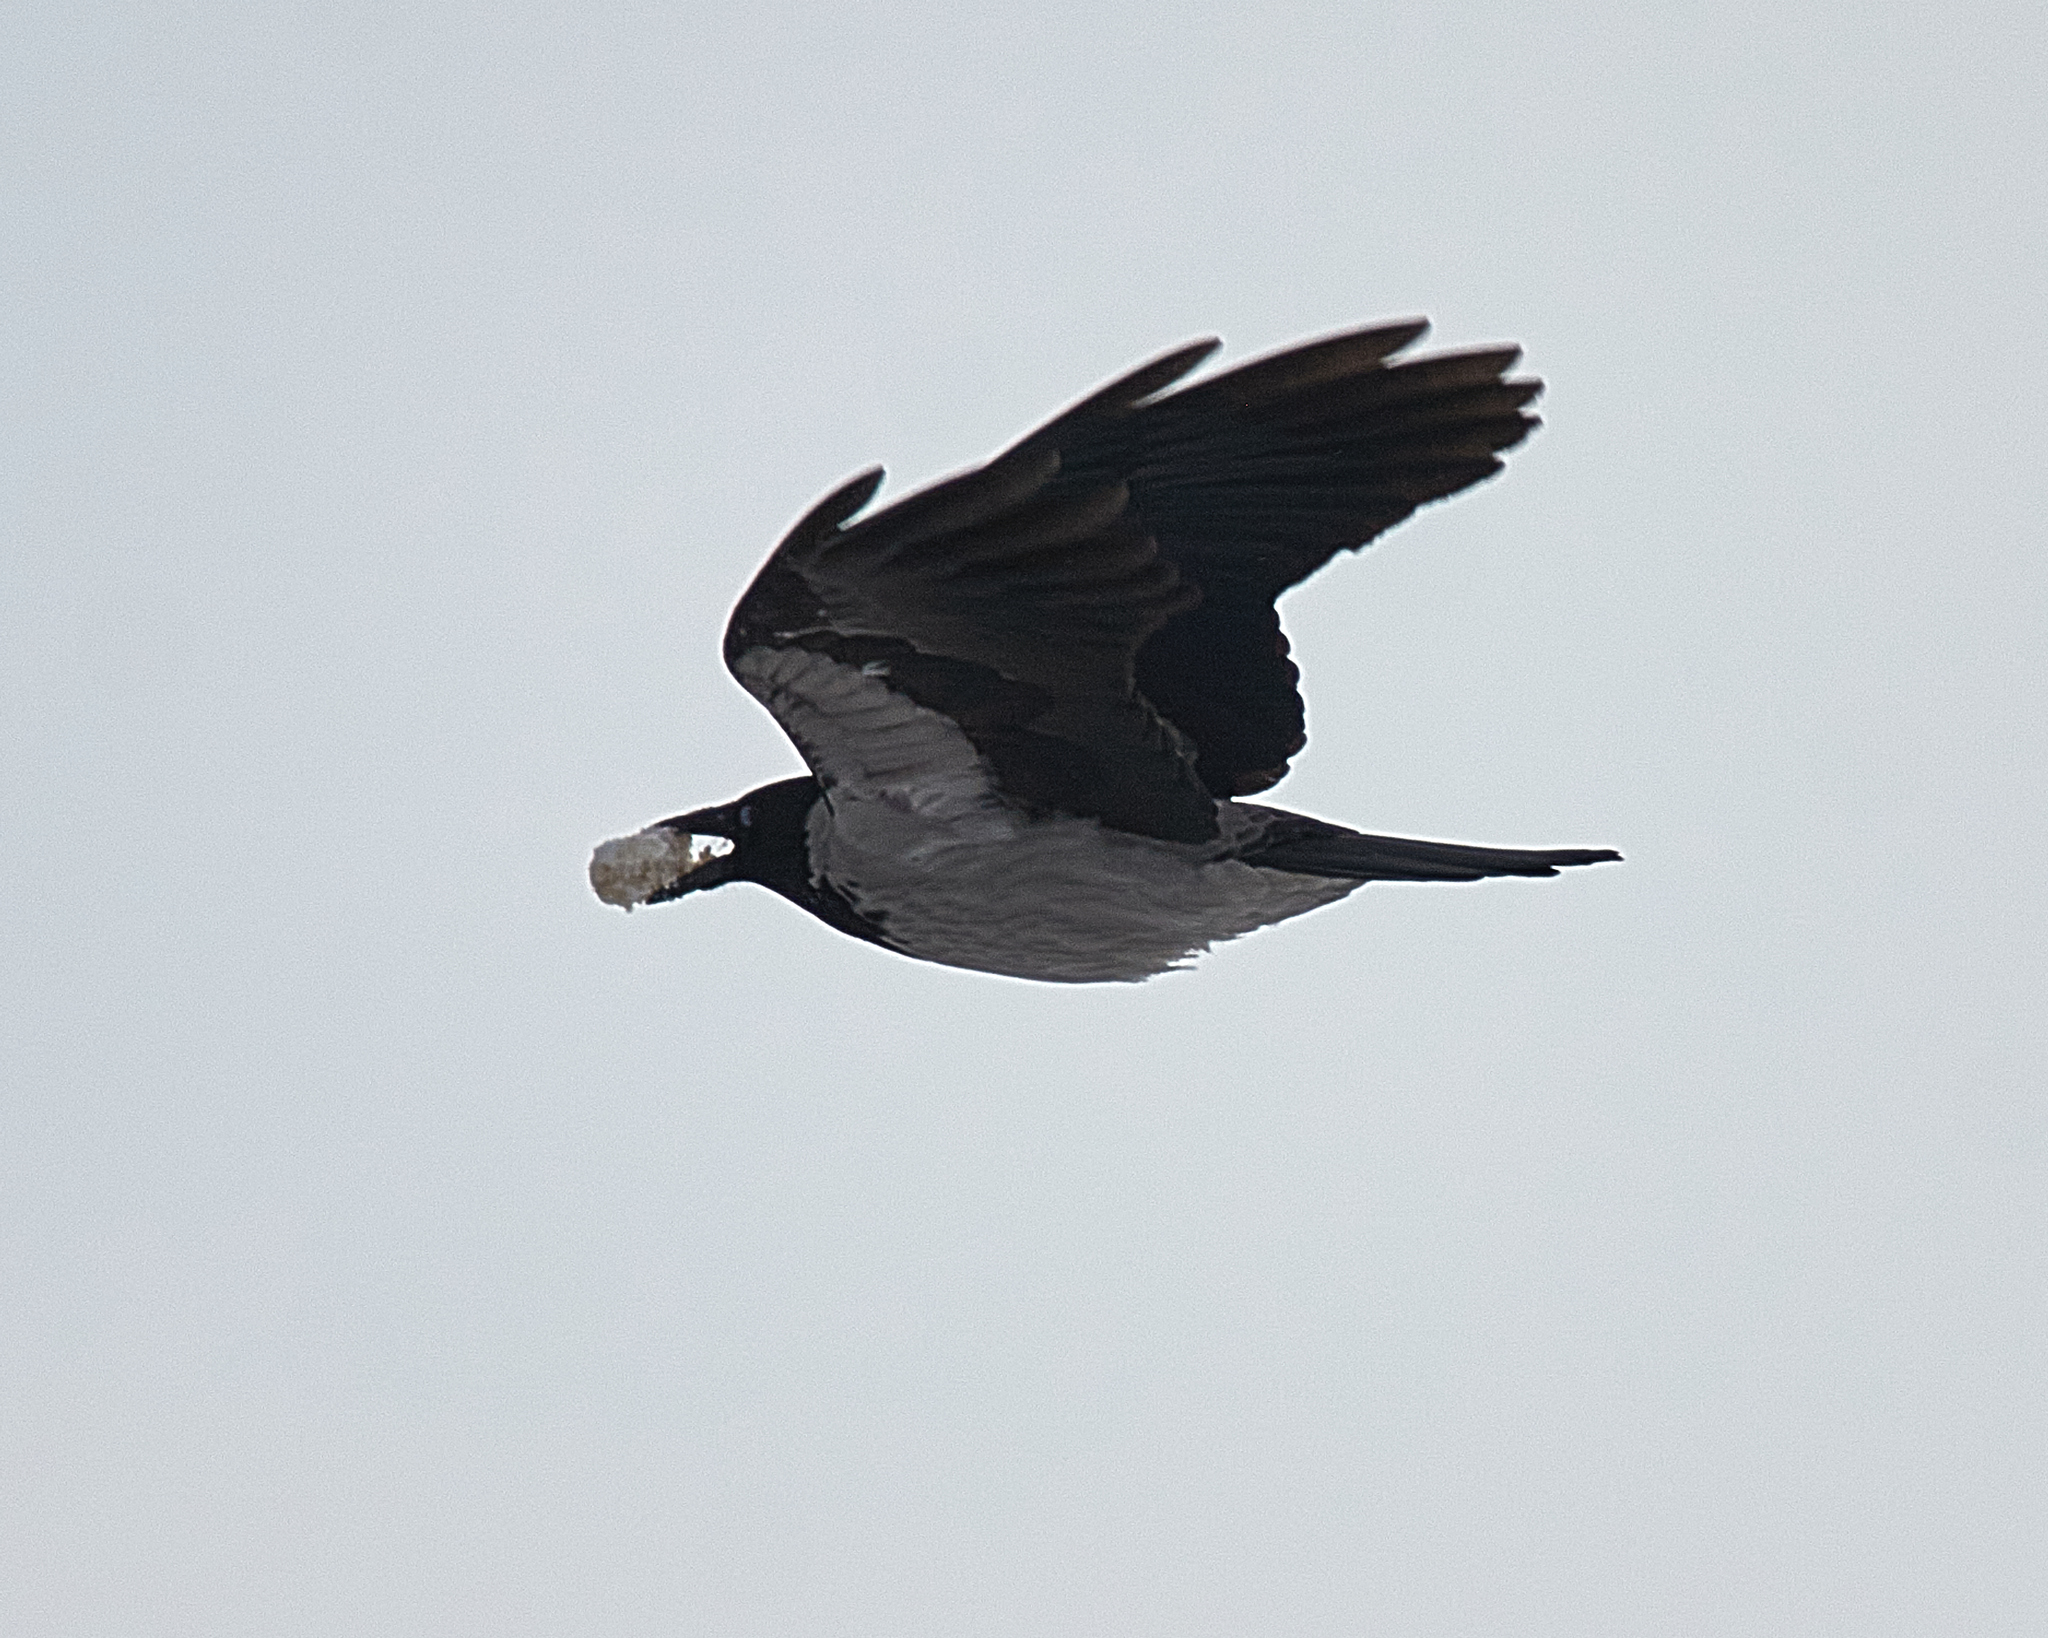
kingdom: Animalia
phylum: Chordata
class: Aves
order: Passeriformes
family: Corvidae
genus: Corvus
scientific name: Corvus cornix
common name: Hooded crow
